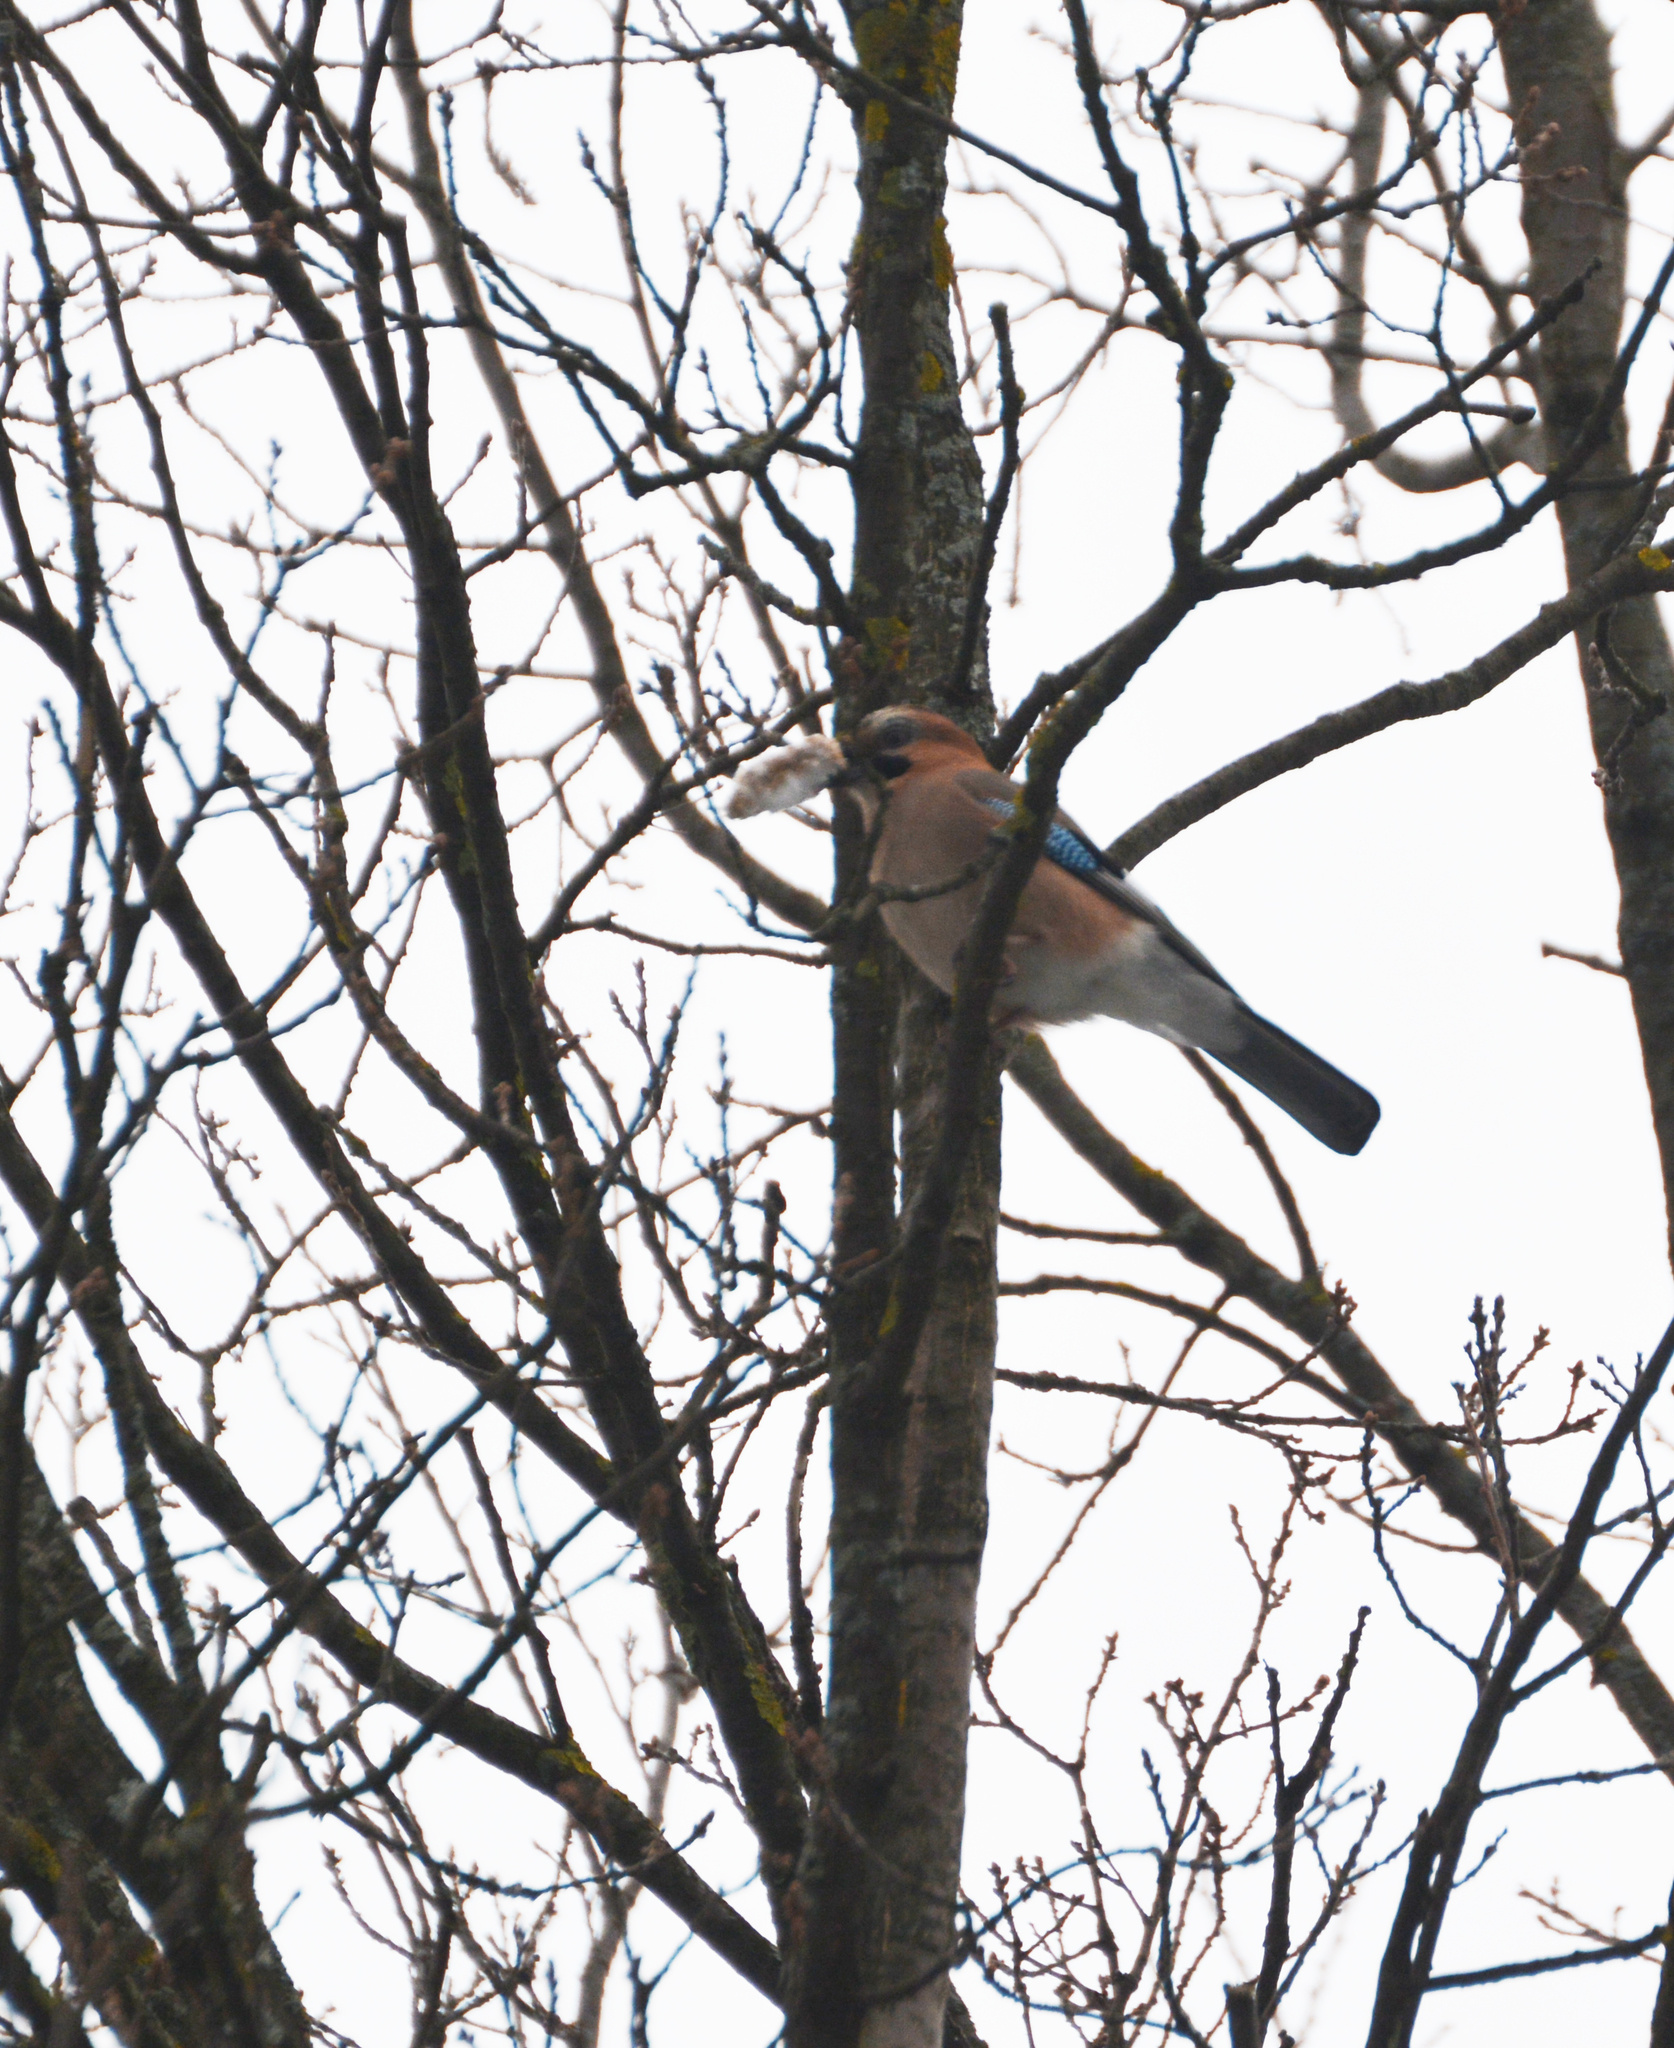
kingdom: Animalia
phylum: Chordata
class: Aves
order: Passeriformes
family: Corvidae
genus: Garrulus
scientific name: Garrulus glandarius
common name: Eurasian jay
